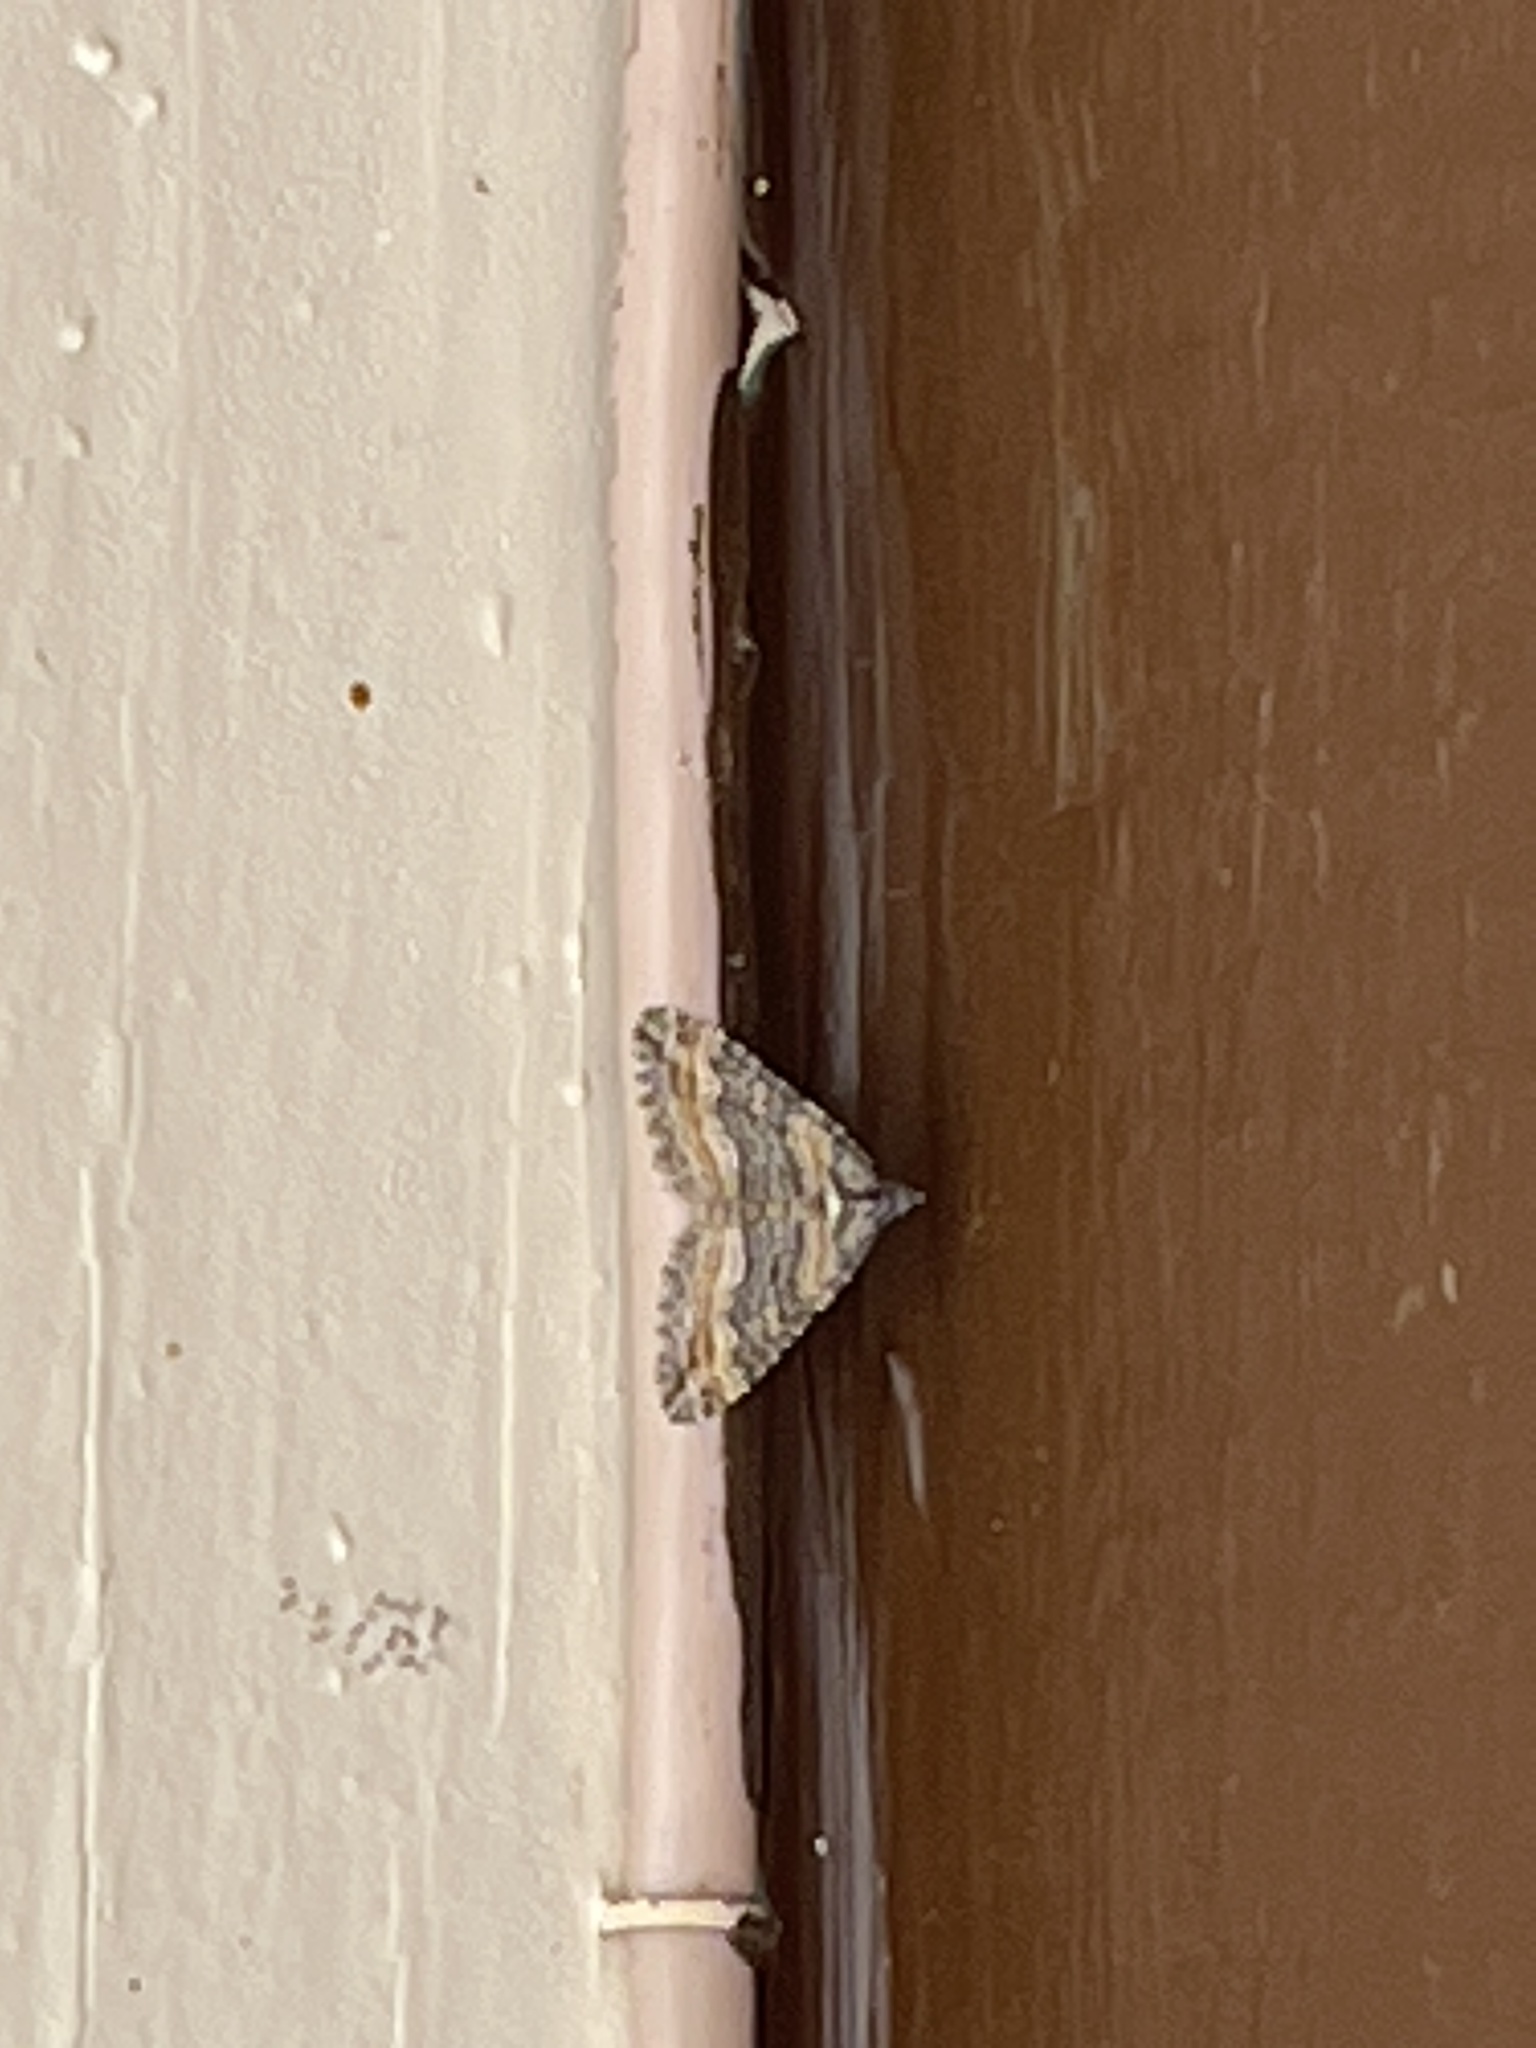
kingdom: Animalia
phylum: Arthropoda
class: Insecta
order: Lepidoptera
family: Geometridae
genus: Perizoma
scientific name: Perizoma custodiata
